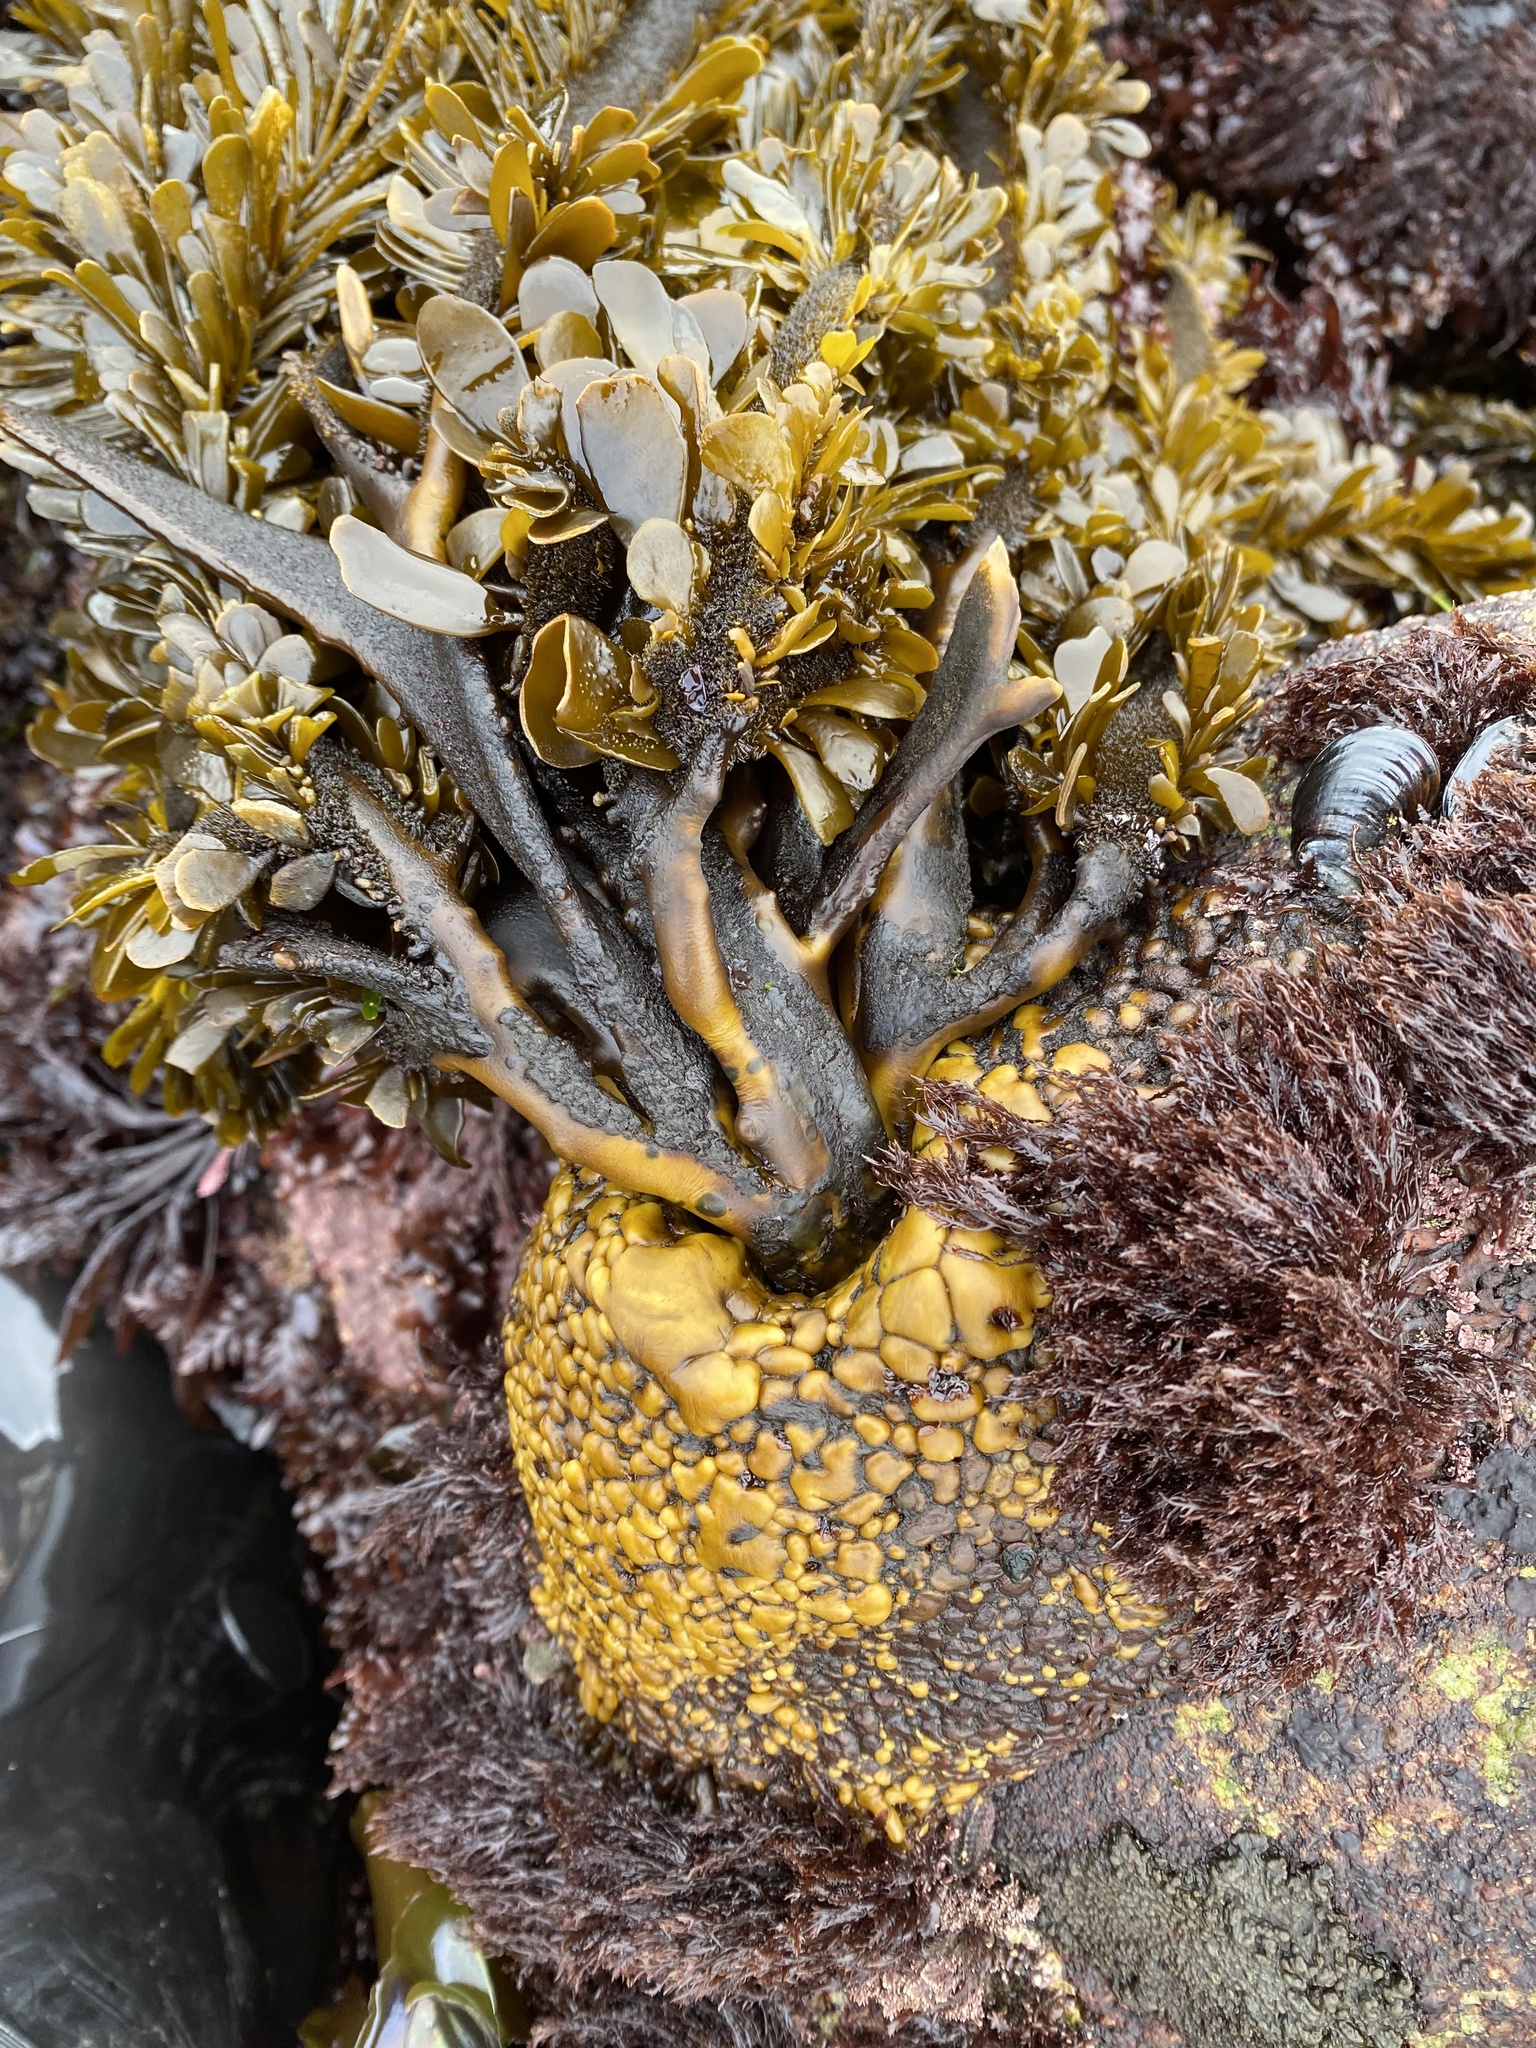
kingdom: Chromista
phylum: Ochrophyta
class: Phaeophyceae
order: Laminariales
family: Lessoniaceae
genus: Egregia
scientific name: Egregia menziesii
